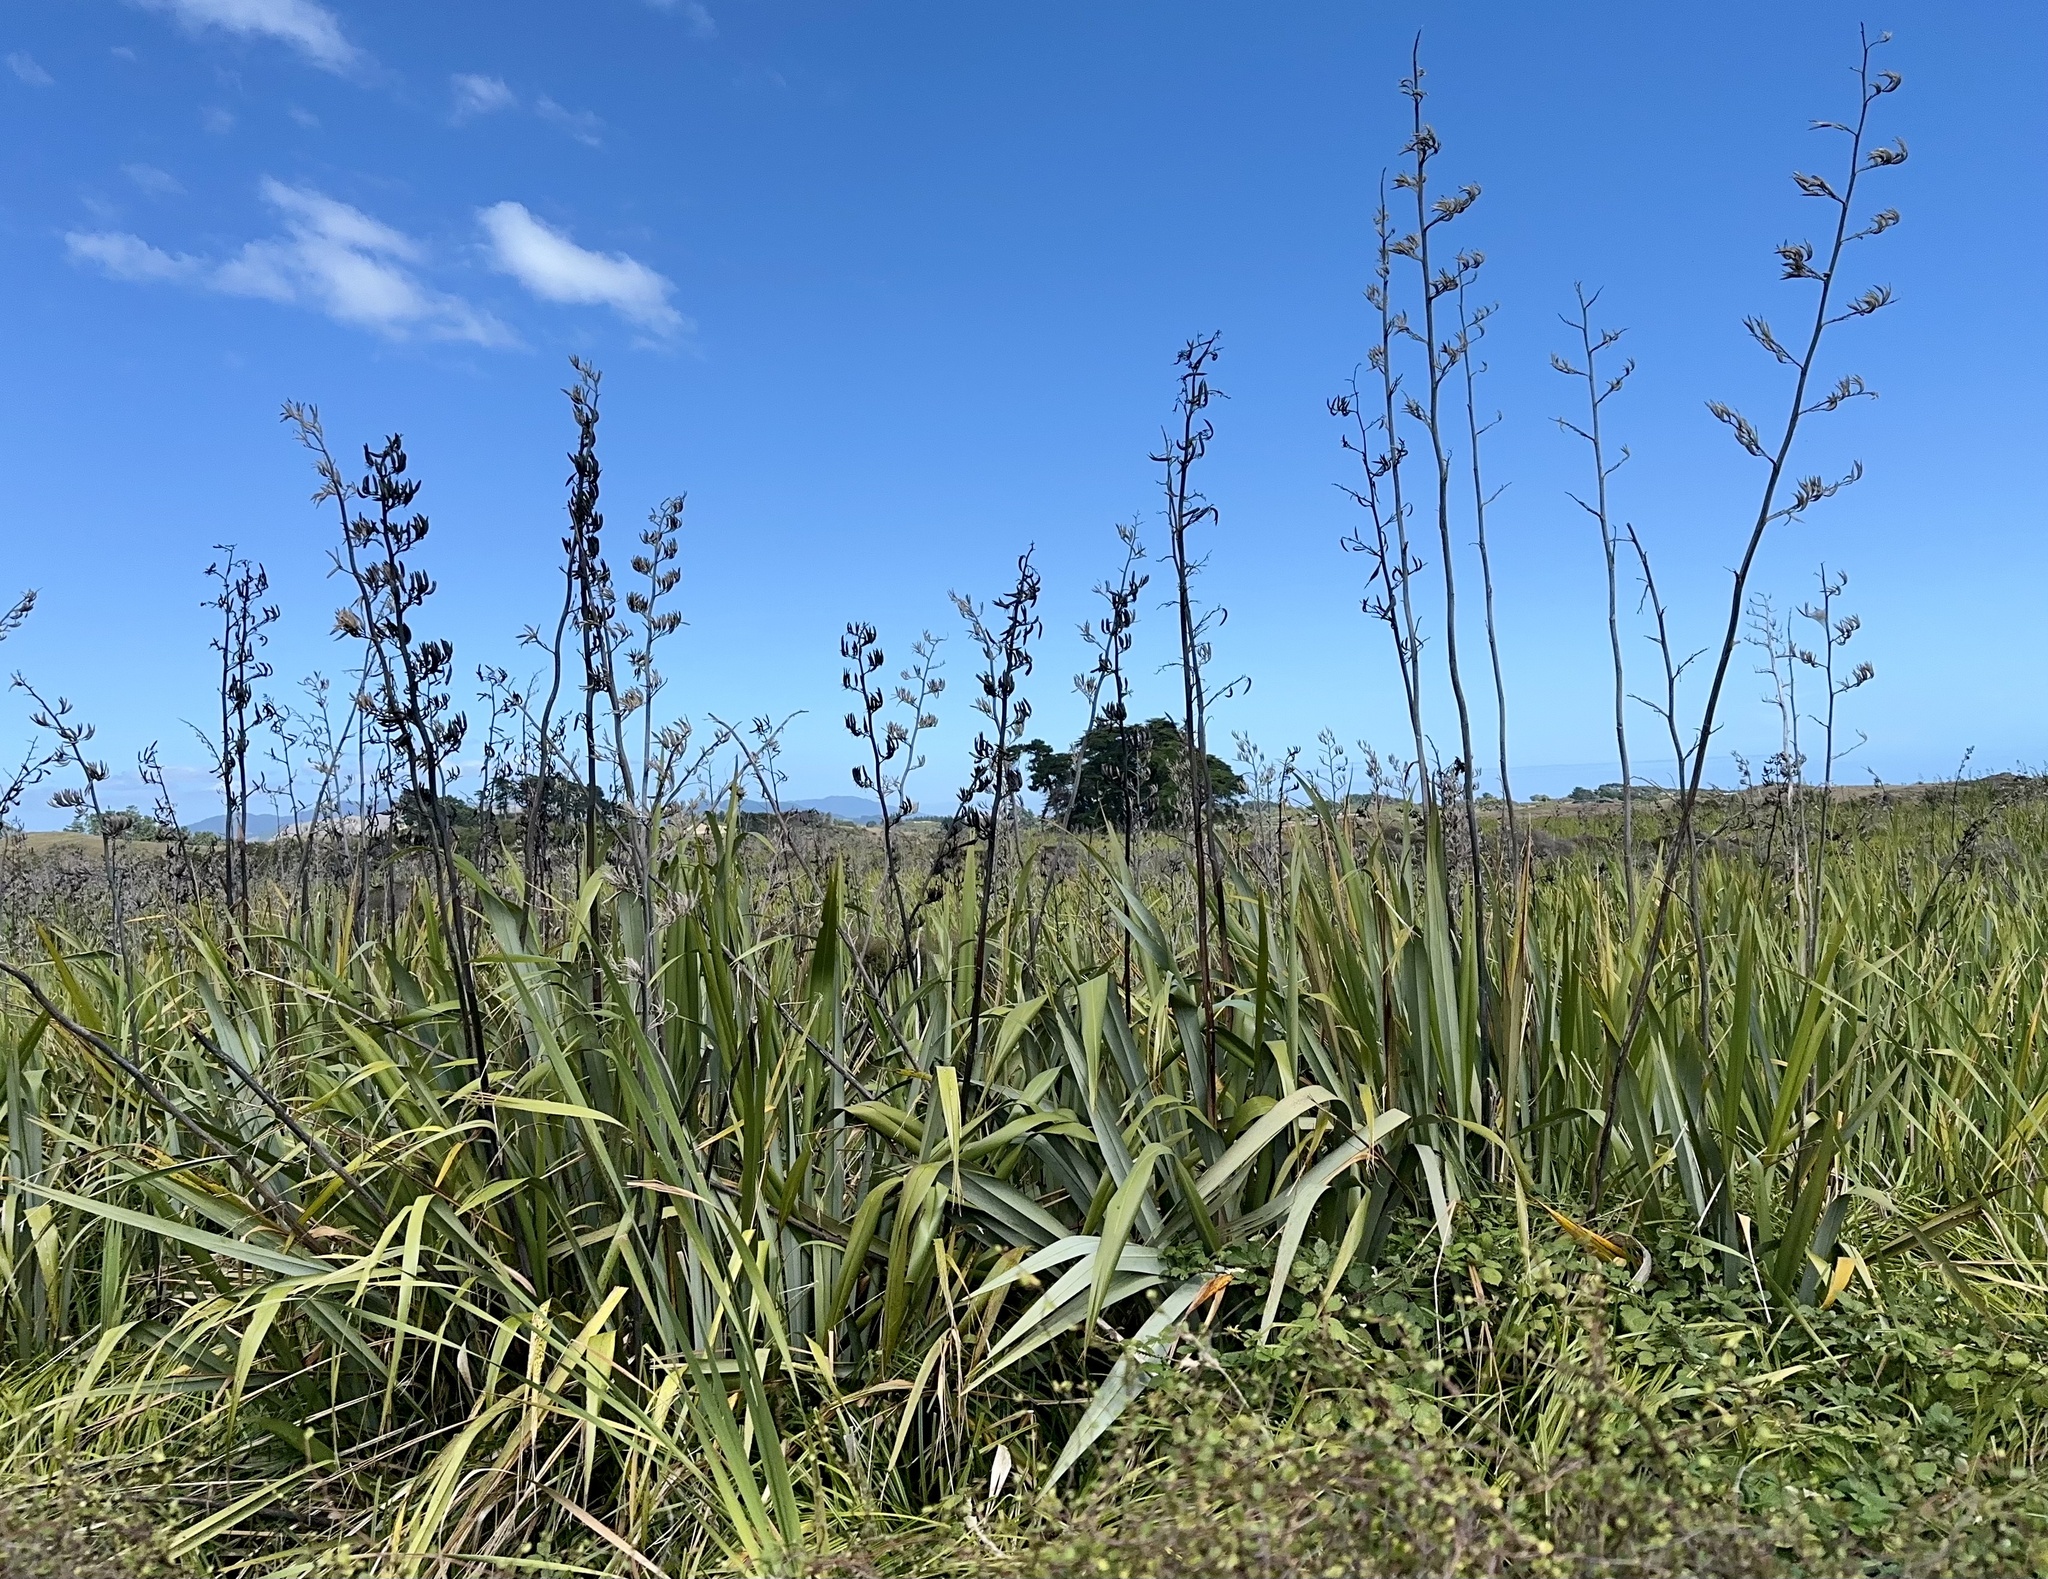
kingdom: Plantae
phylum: Tracheophyta
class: Liliopsida
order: Asparagales
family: Asphodelaceae
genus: Phormium
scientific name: Phormium tenax
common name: New zealand flax
